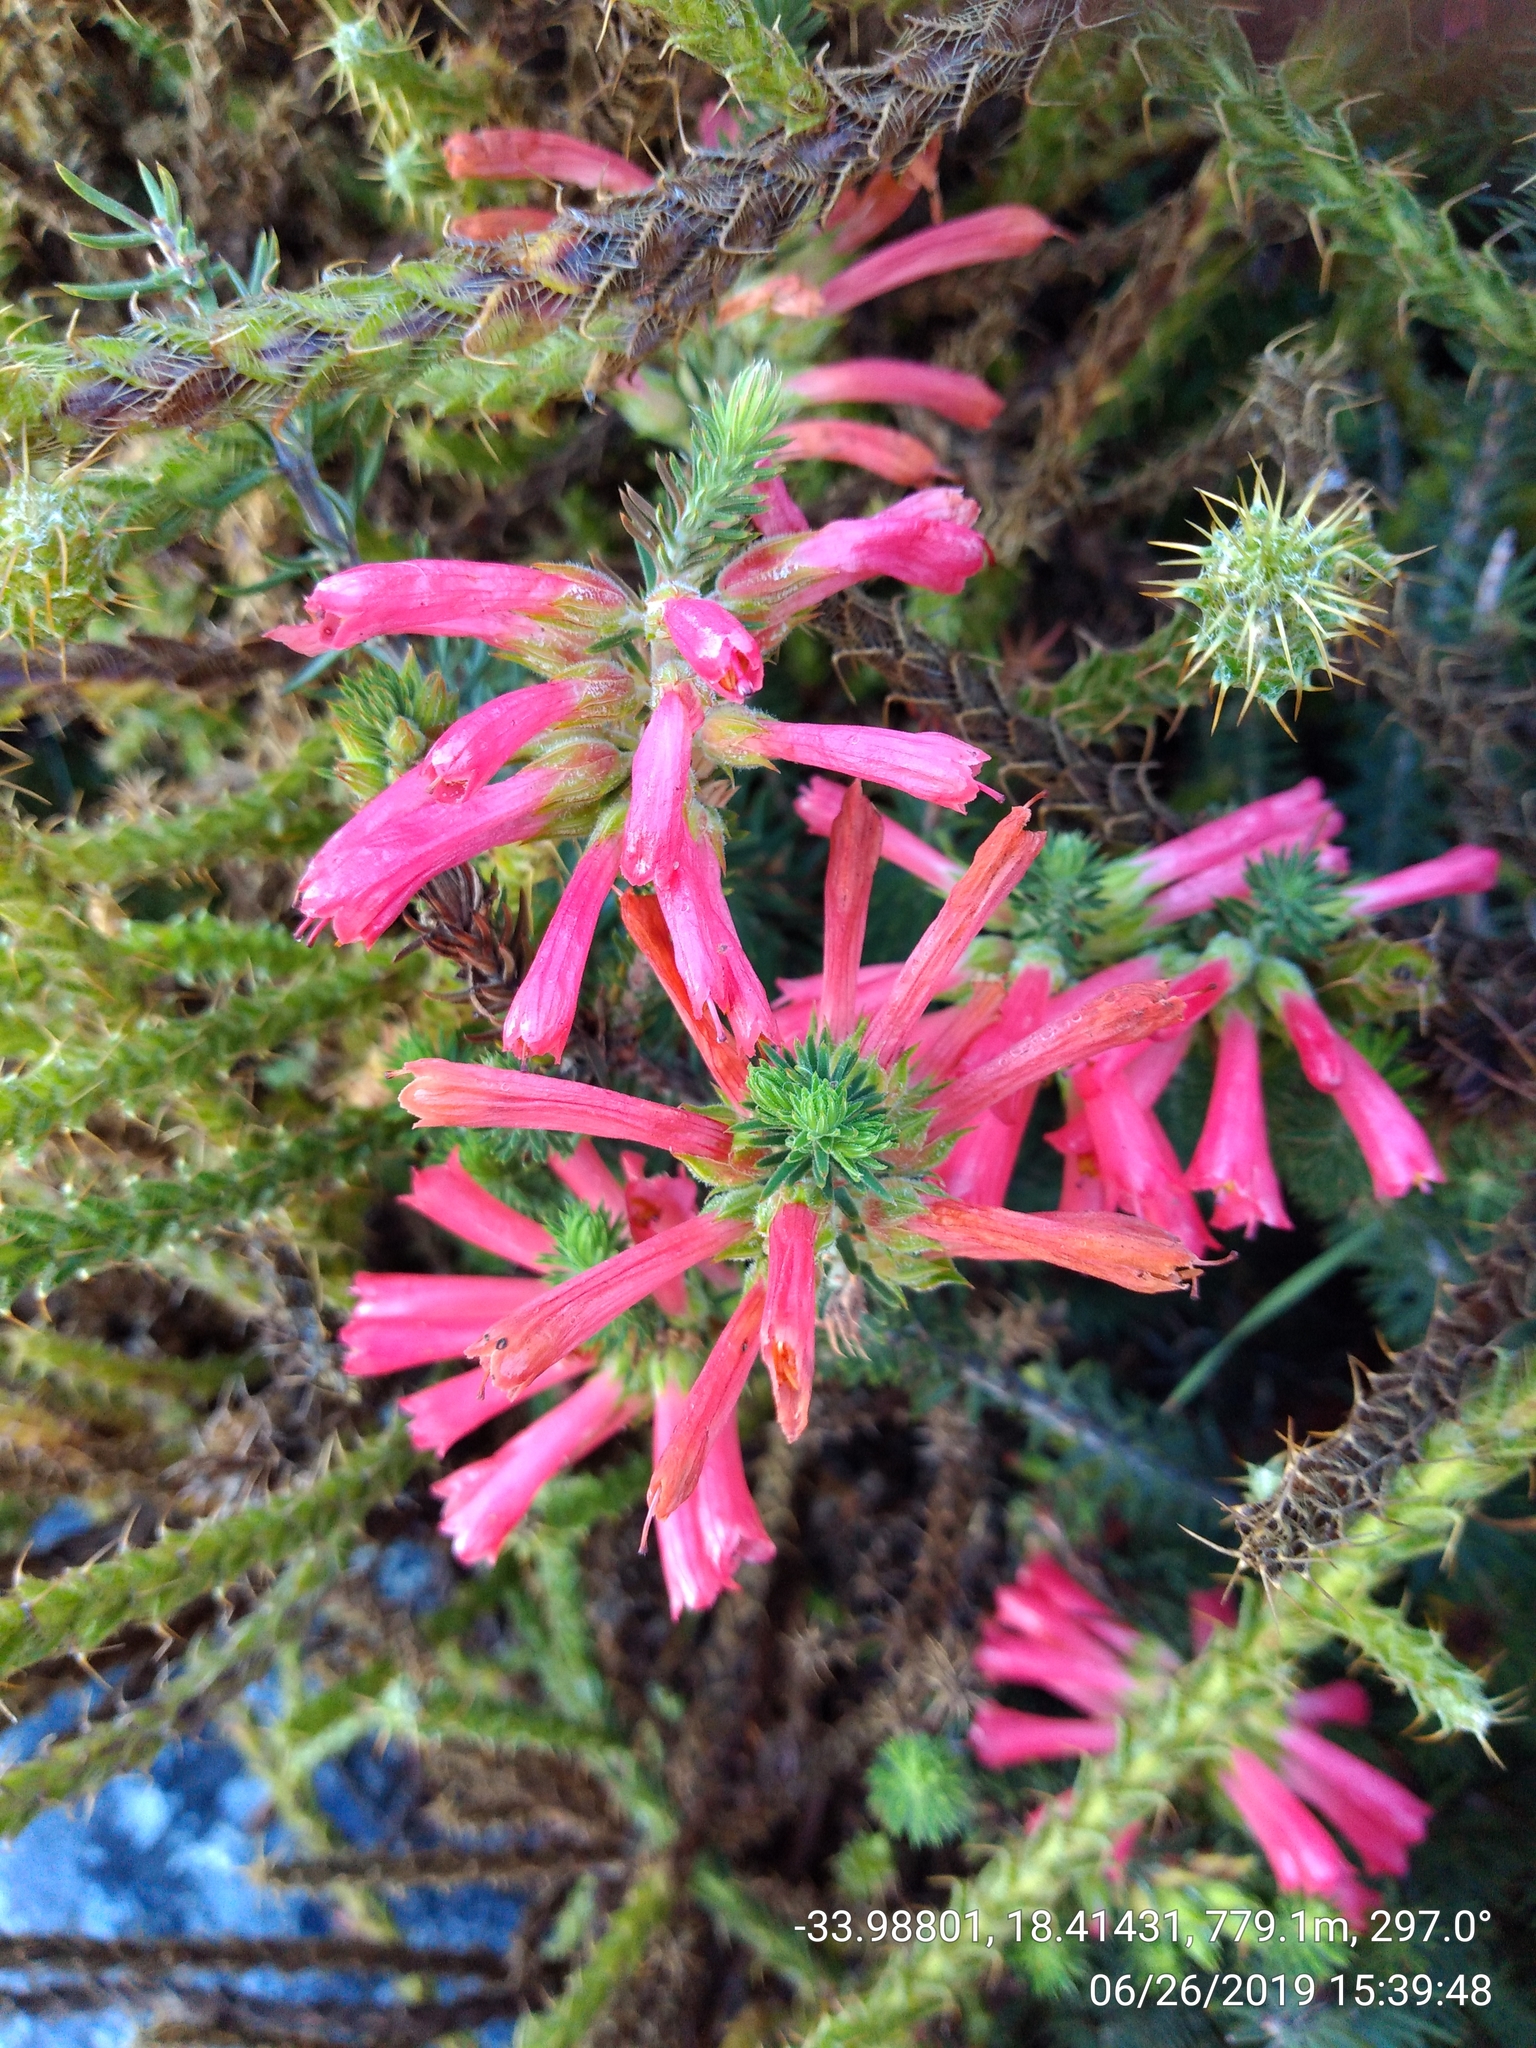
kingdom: Plantae
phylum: Tracheophyta
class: Magnoliopsida
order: Ericales
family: Ericaceae
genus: Erica
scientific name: Erica abietina
